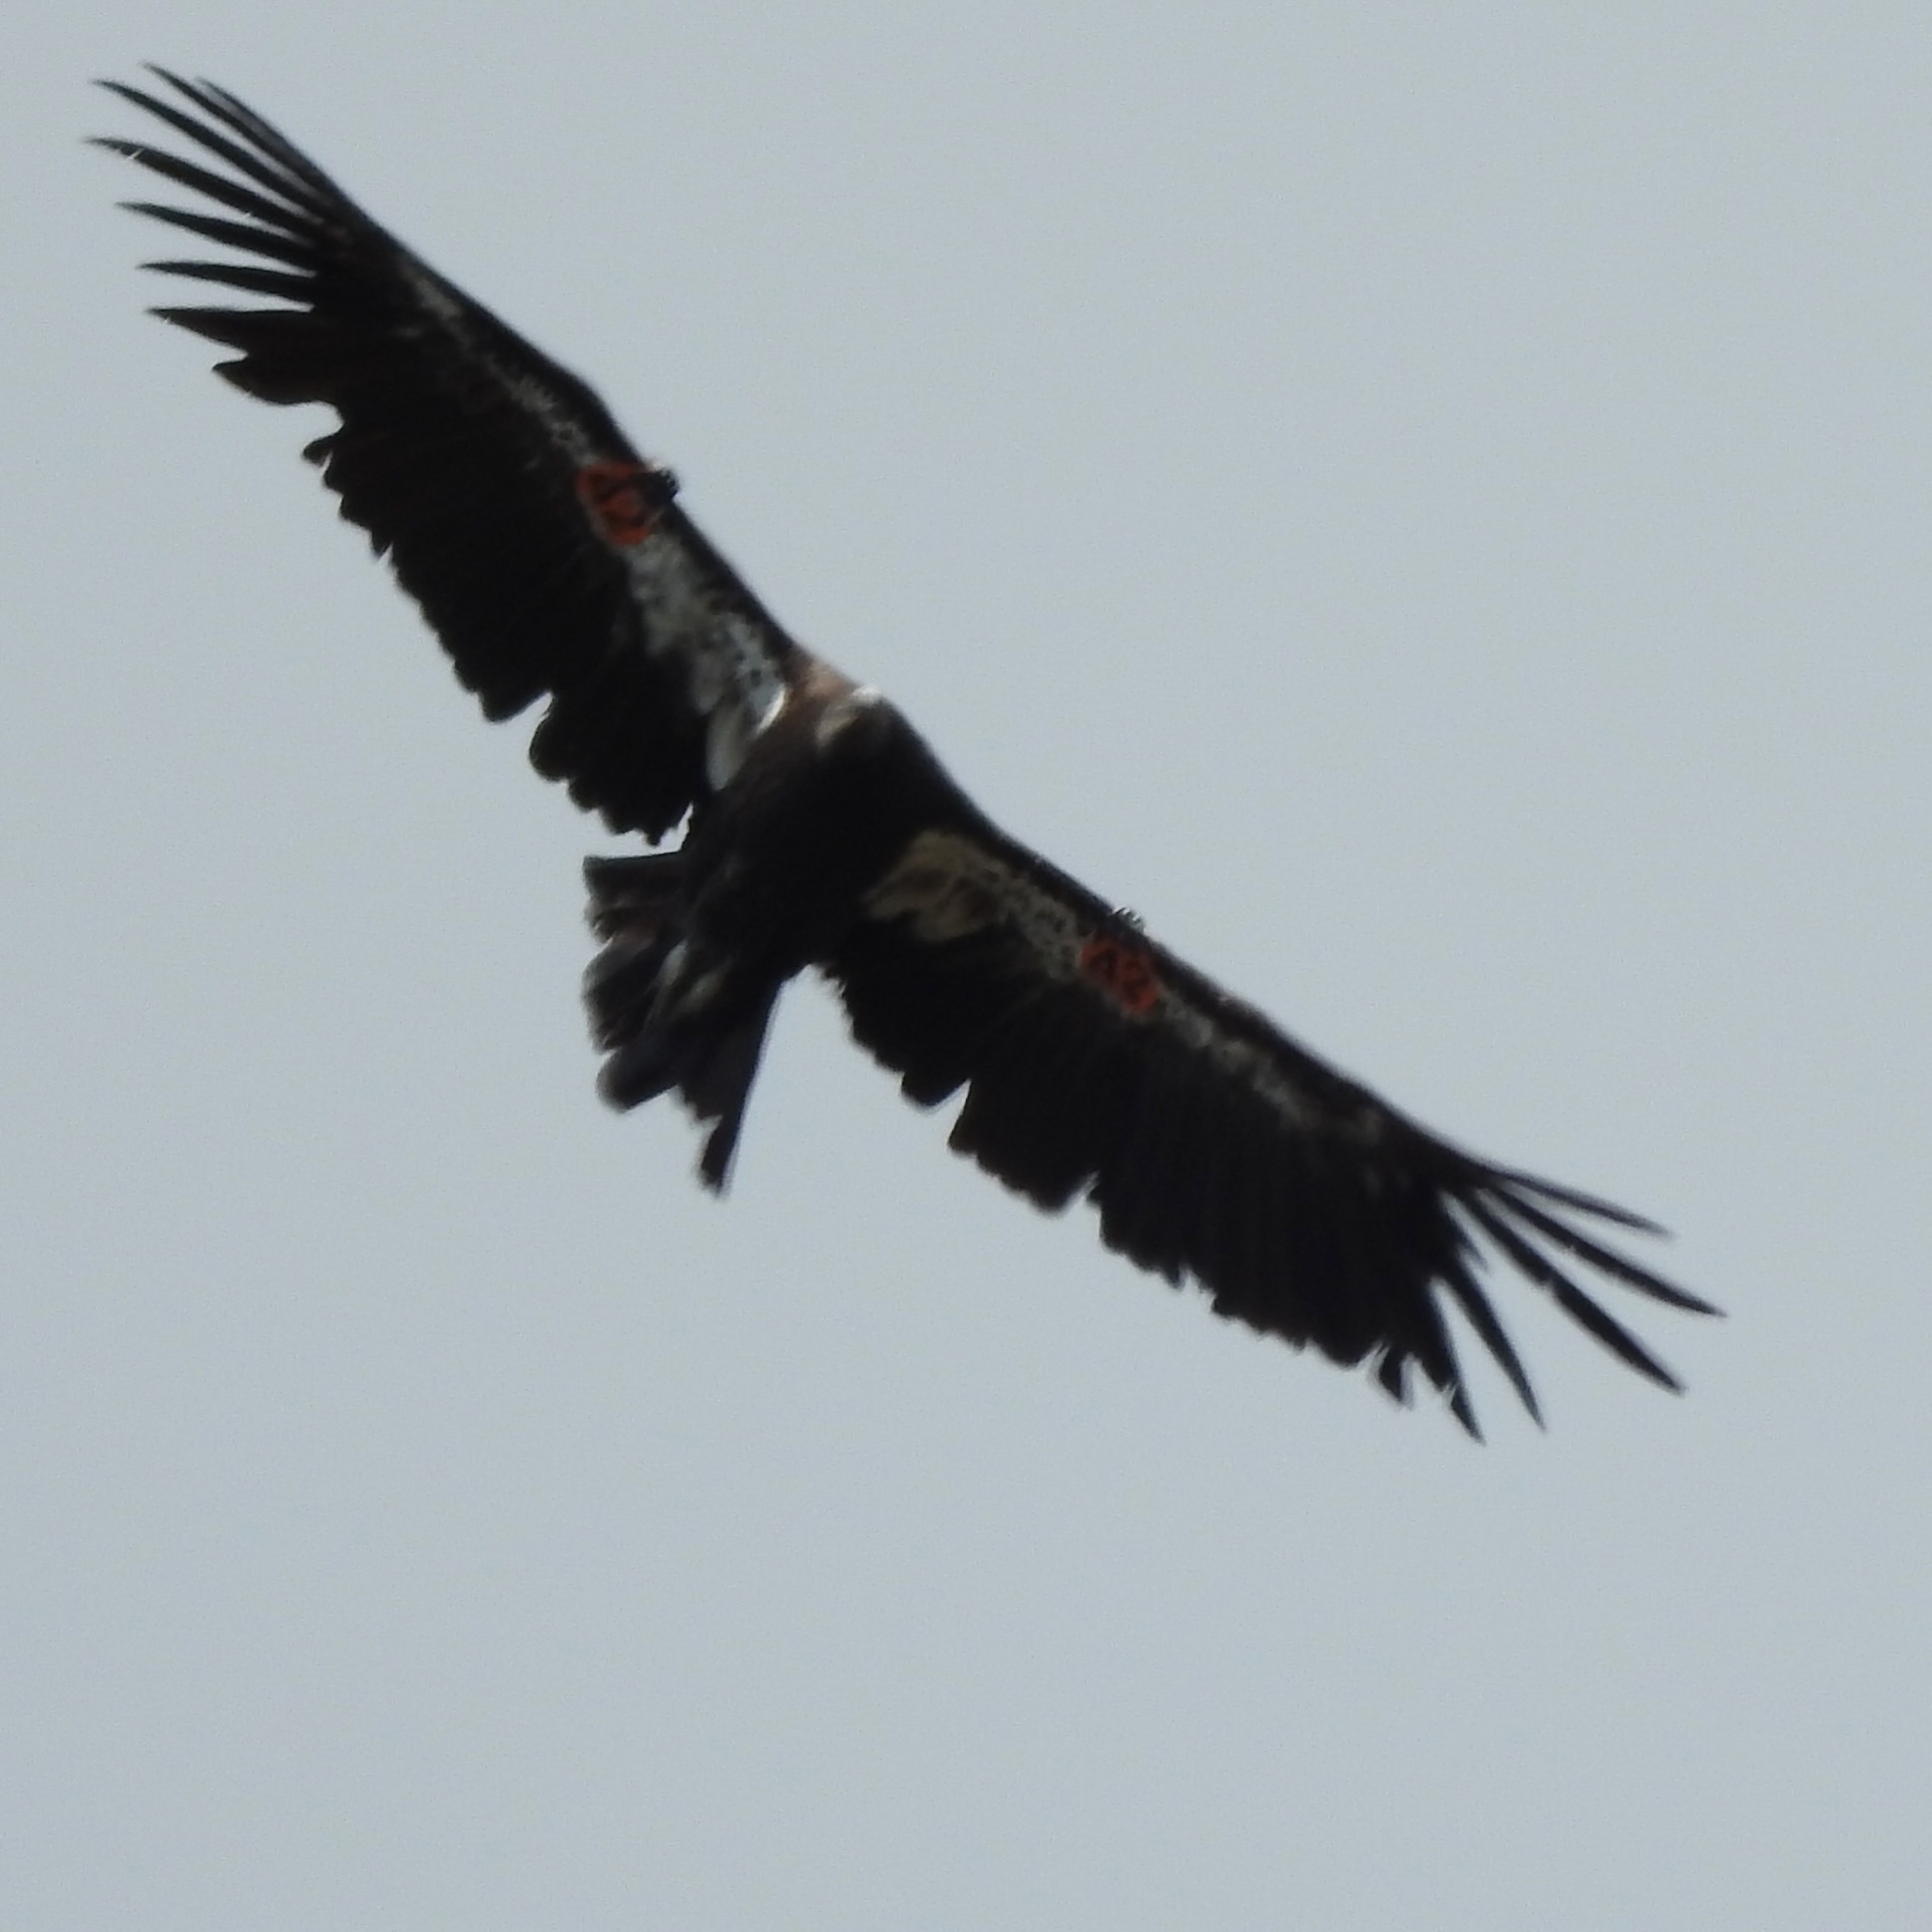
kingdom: Animalia
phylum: Chordata
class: Aves
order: Accipitriformes
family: Cathartidae
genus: Gymnogyps
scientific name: Gymnogyps californianus
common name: California condor
